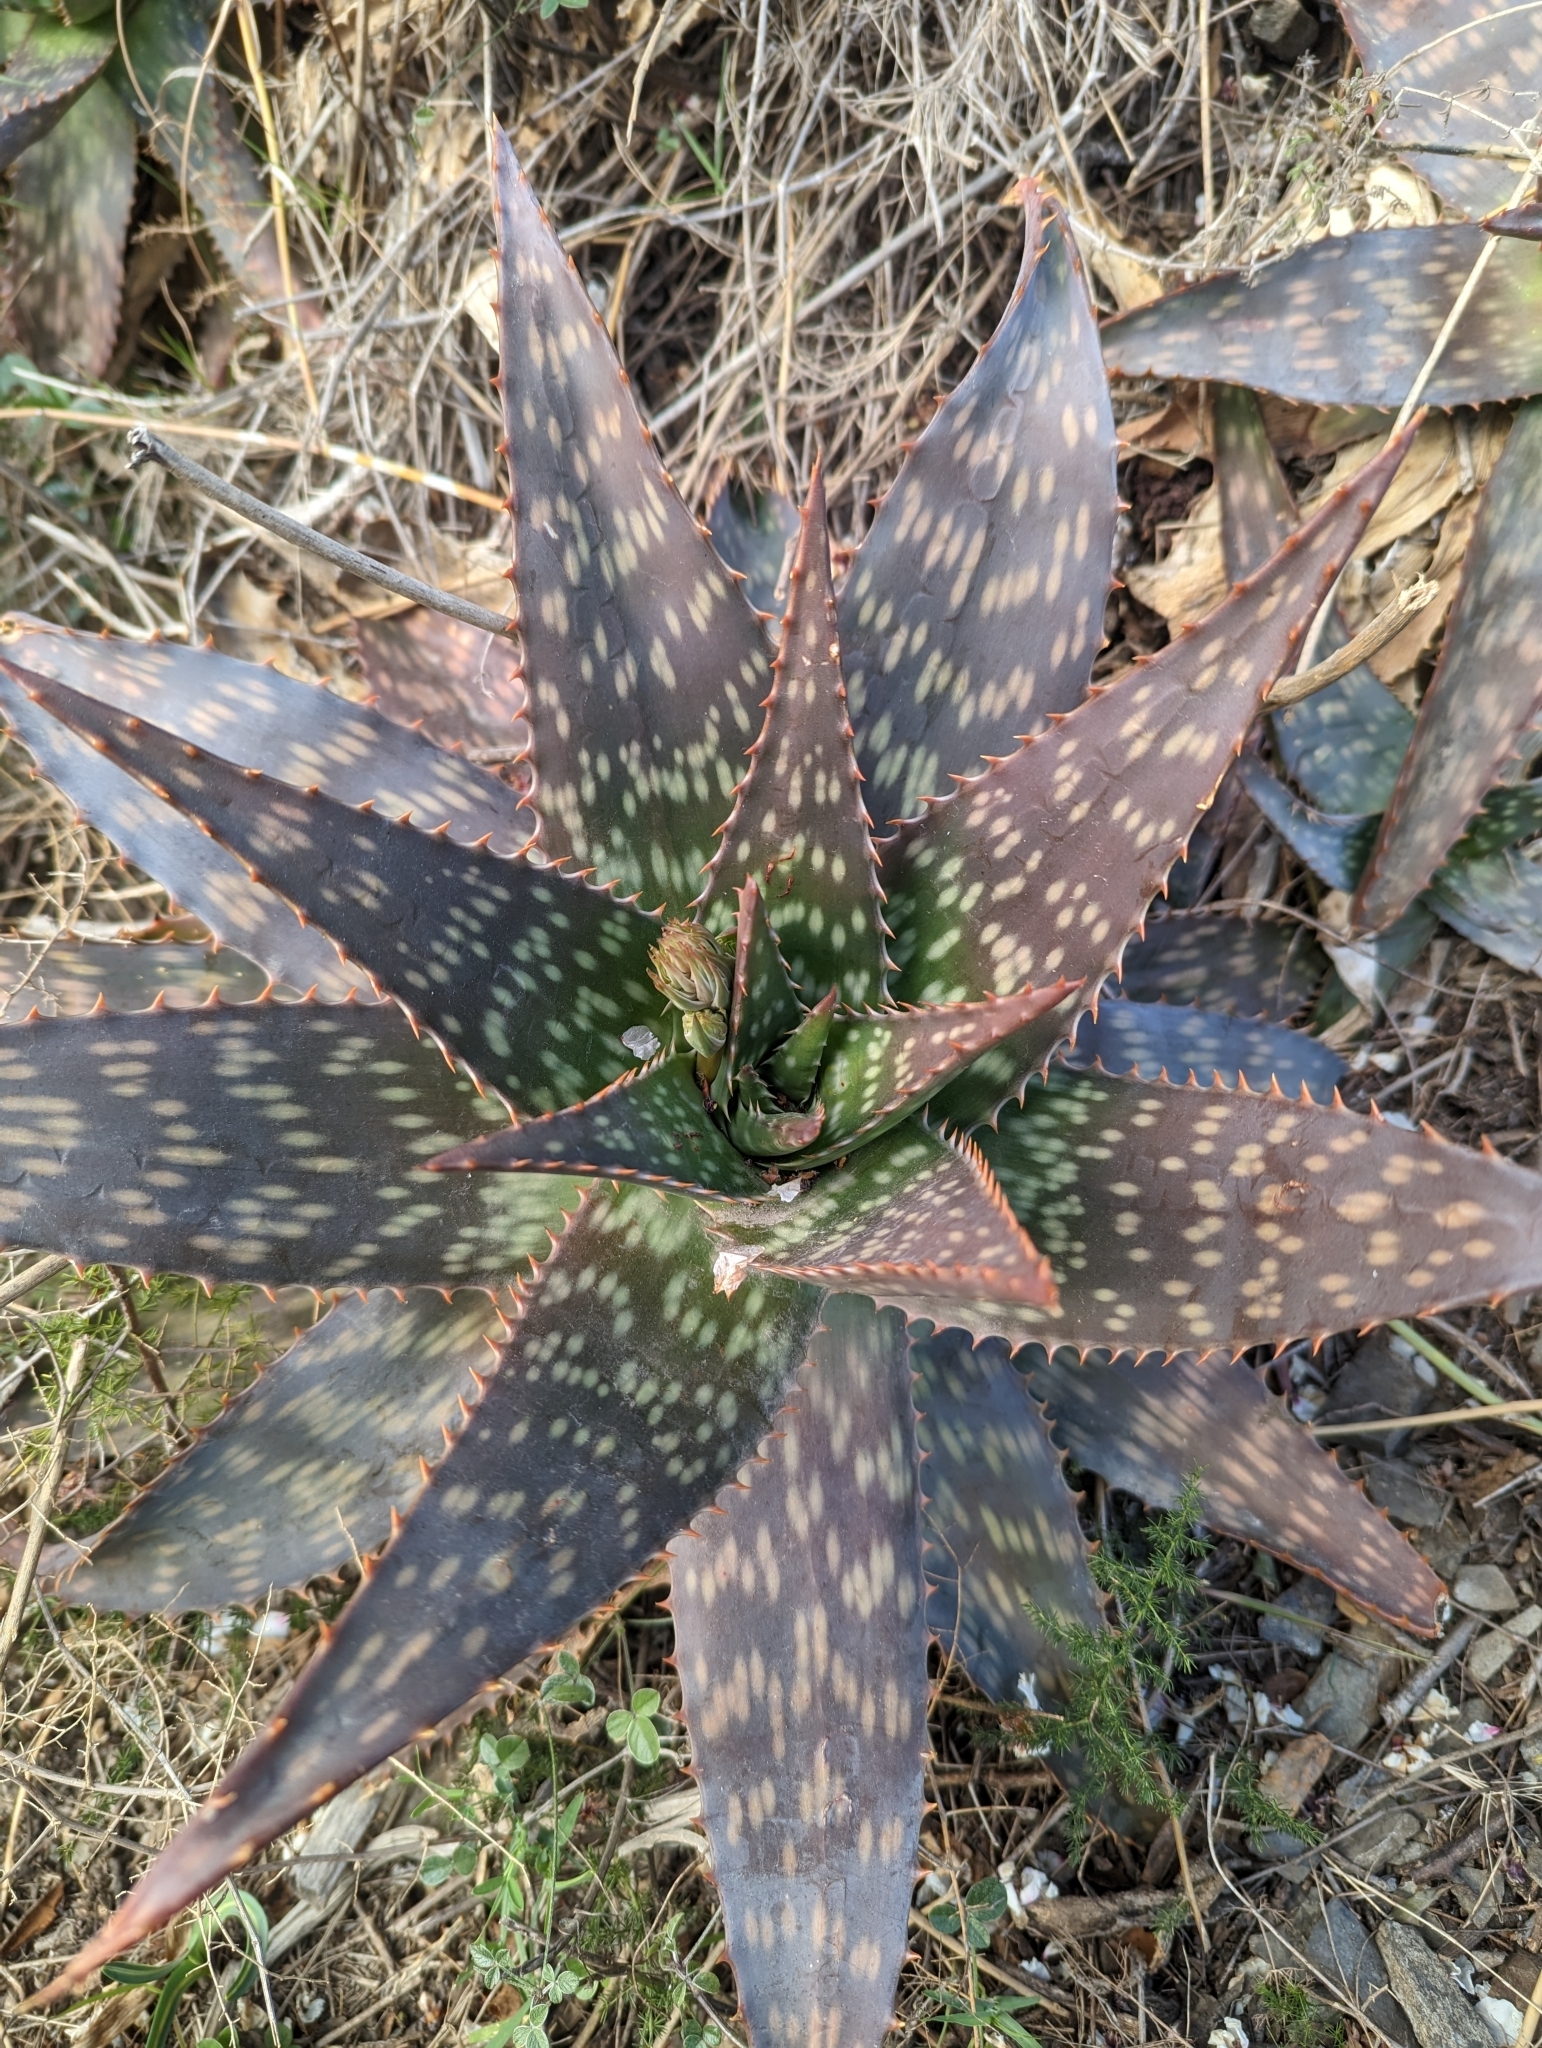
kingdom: Plantae
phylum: Tracheophyta
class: Liliopsida
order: Asparagales
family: Asphodelaceae
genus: Aloe
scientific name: Aloe maculata
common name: Broadleaf aloe
